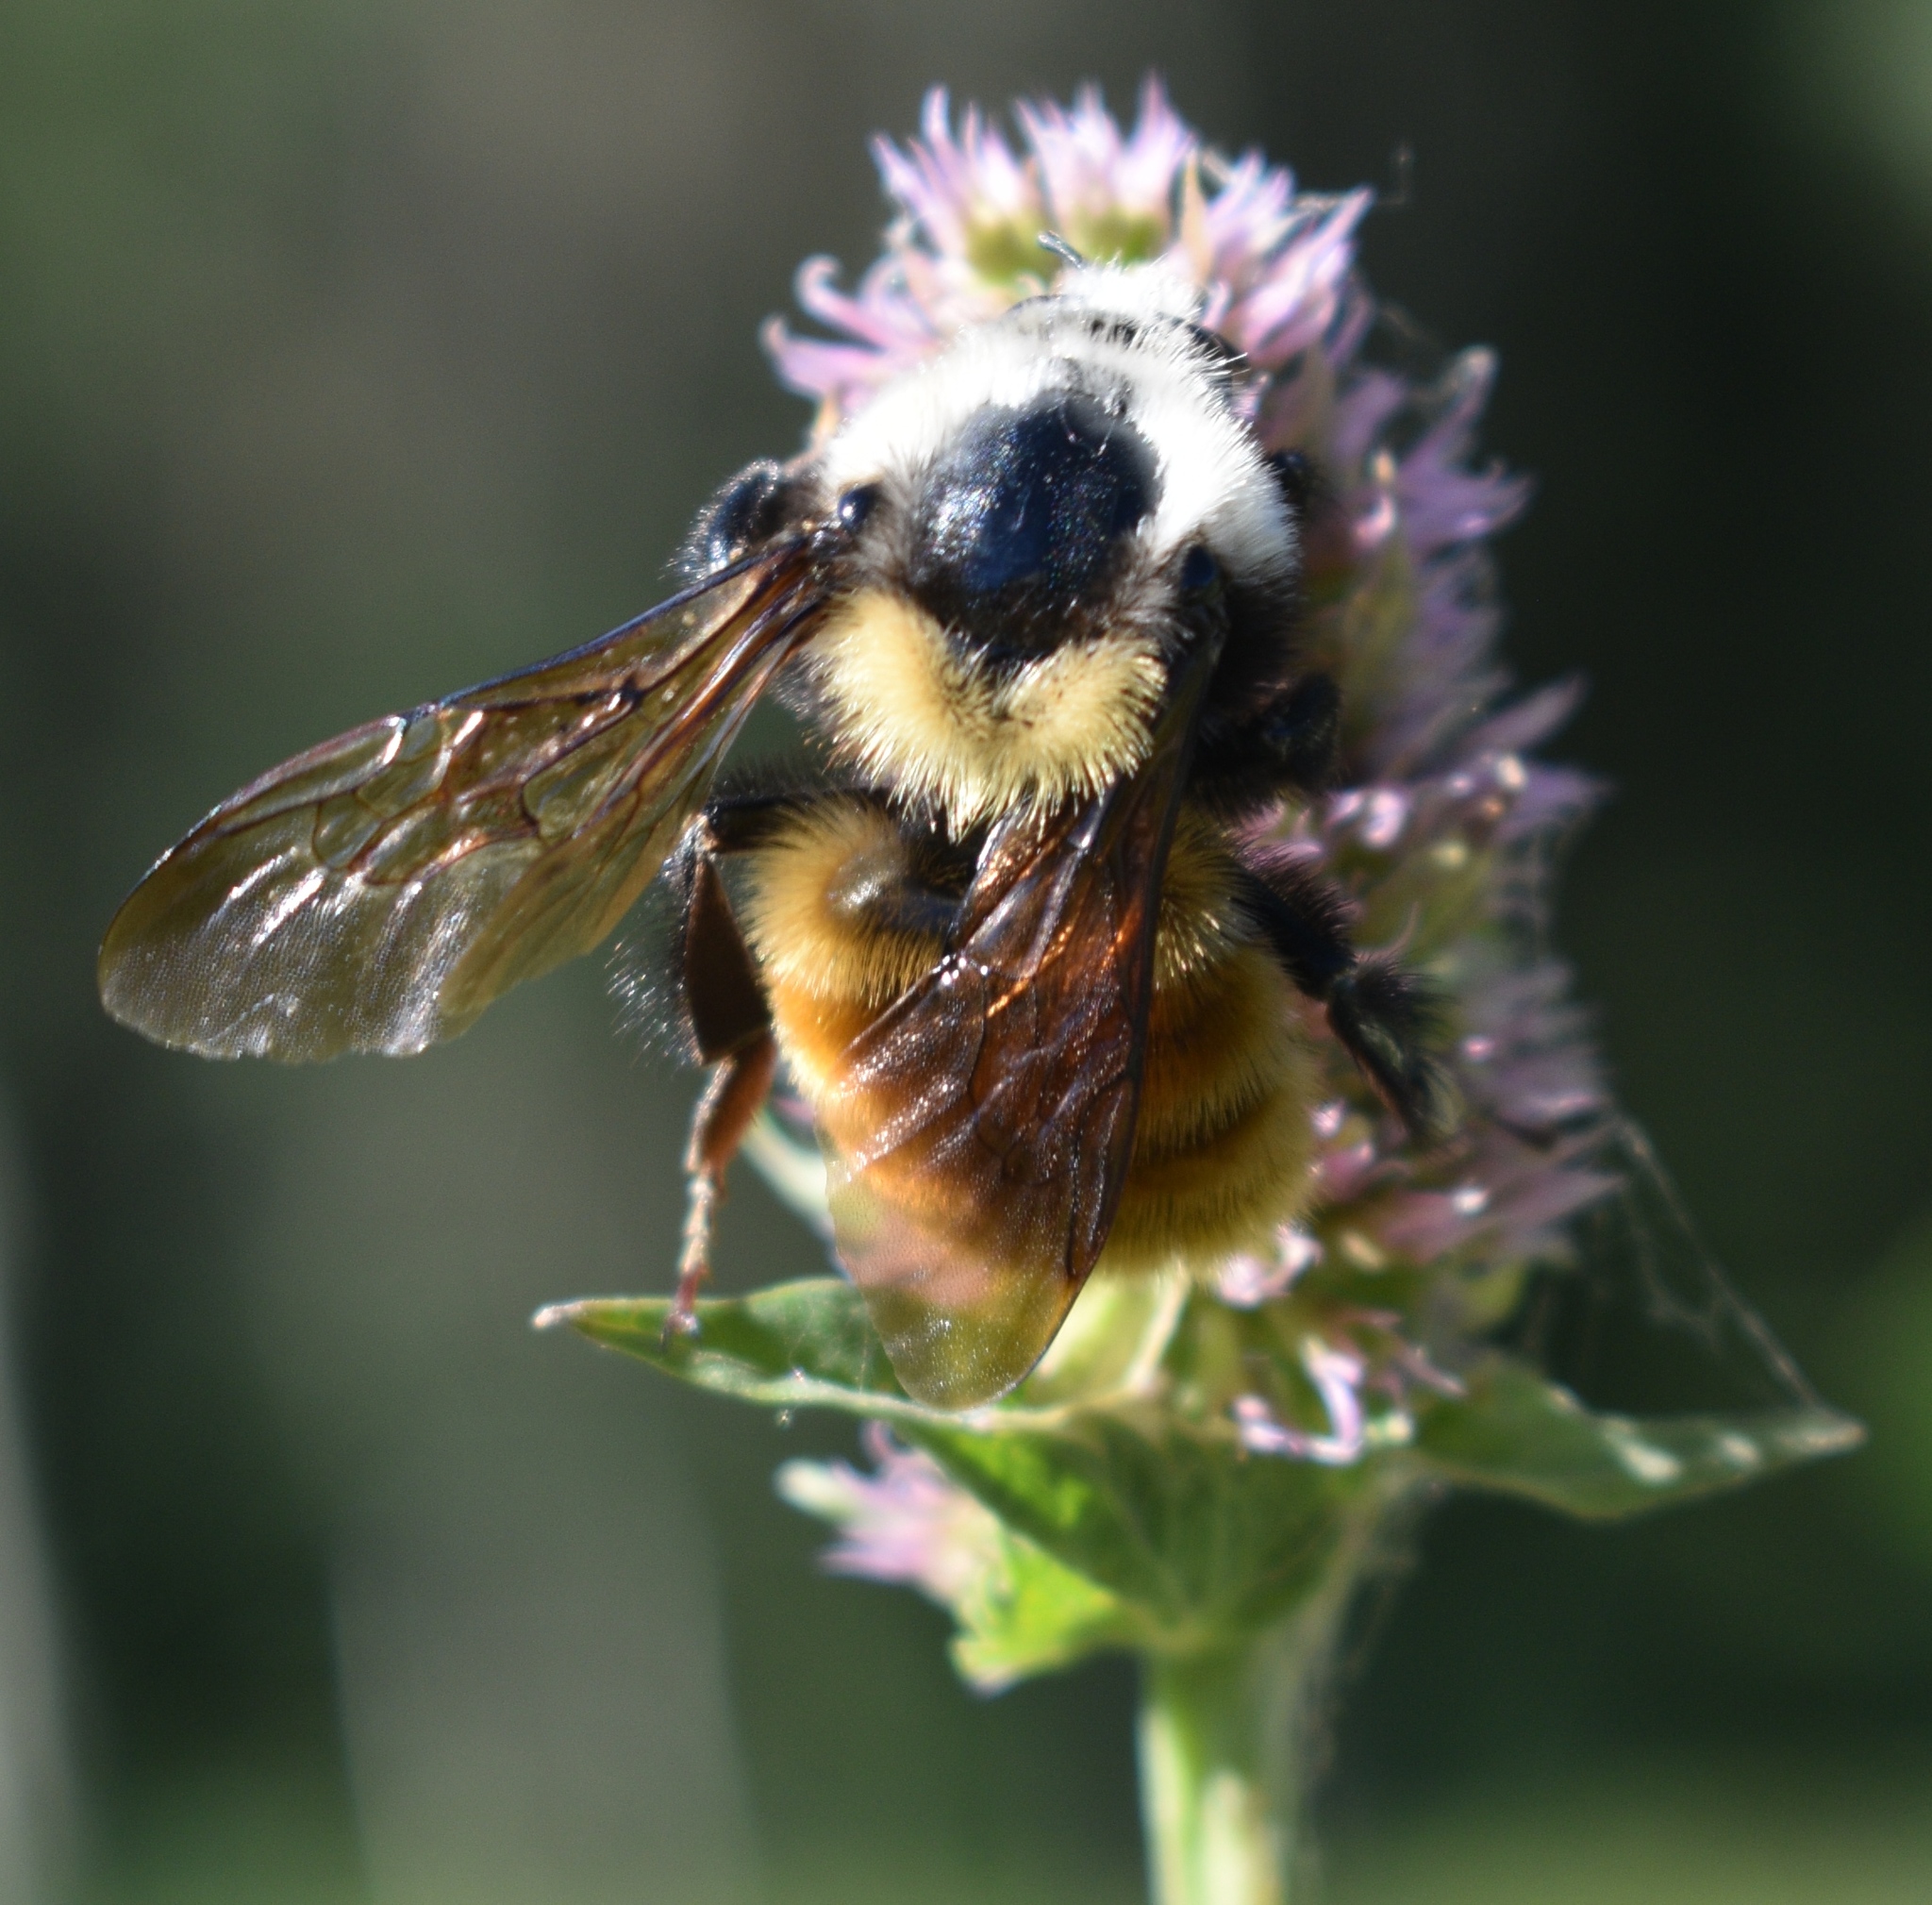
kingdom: Animalia
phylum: Arthropoda
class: Insecta
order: Hymenoptera
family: Apidae
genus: Bombus
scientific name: Bombus appositus
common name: White-shouldered bumble bee
